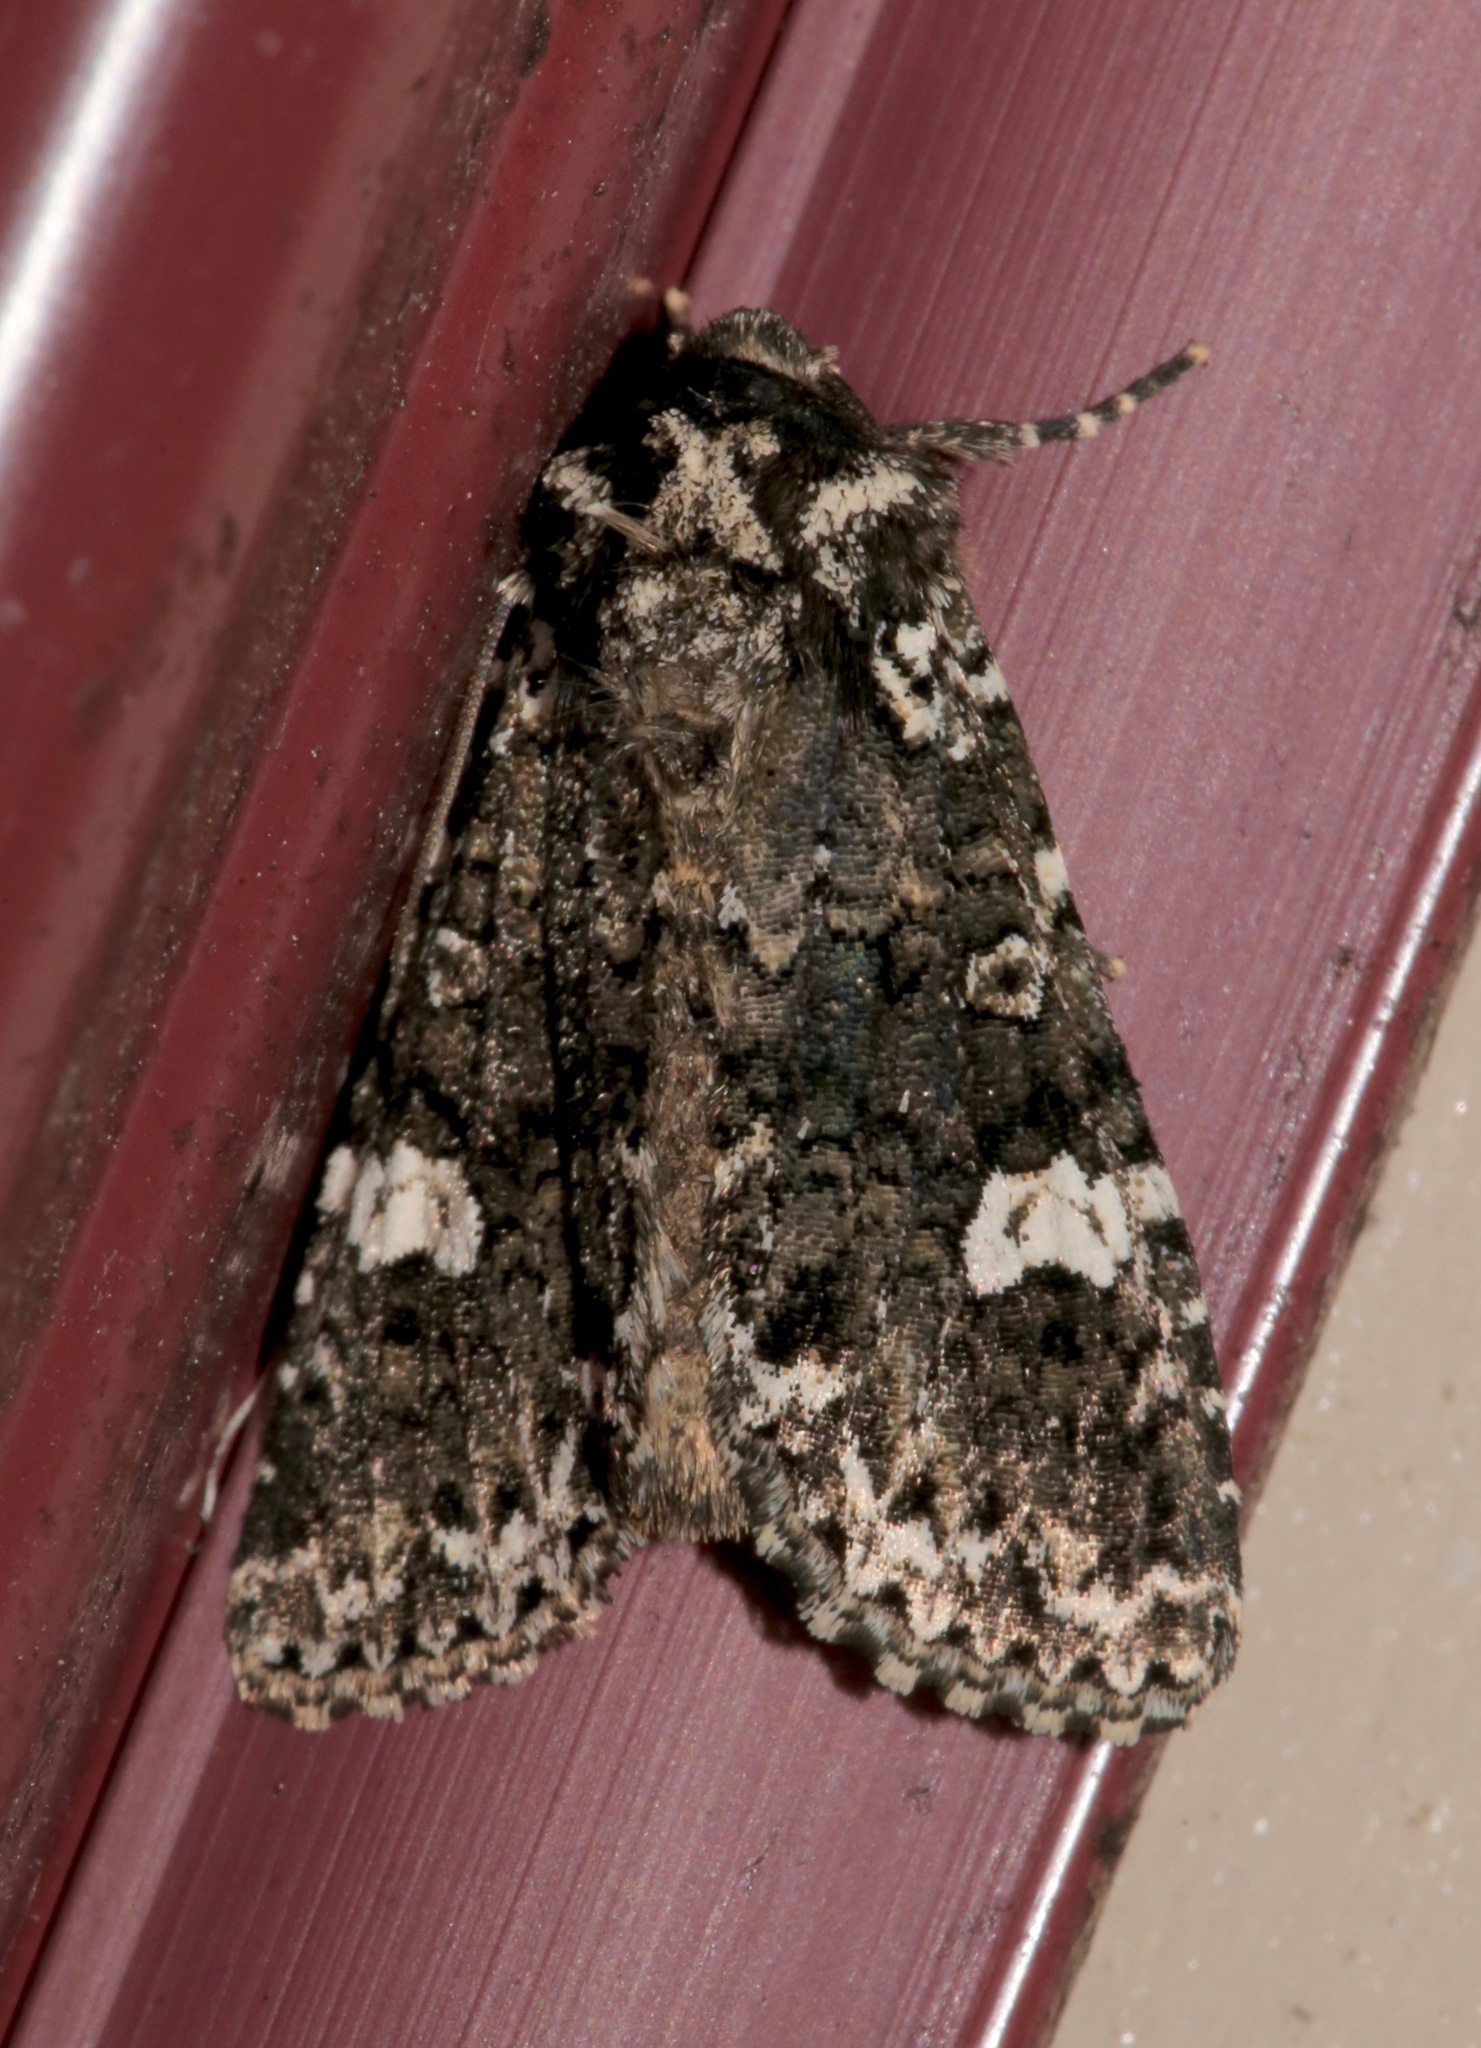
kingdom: Animalia
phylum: Arthropoda
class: Insecta
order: Lepidoptera
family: Noctuidae
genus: Melanchra
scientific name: Melanchra adjuncta
